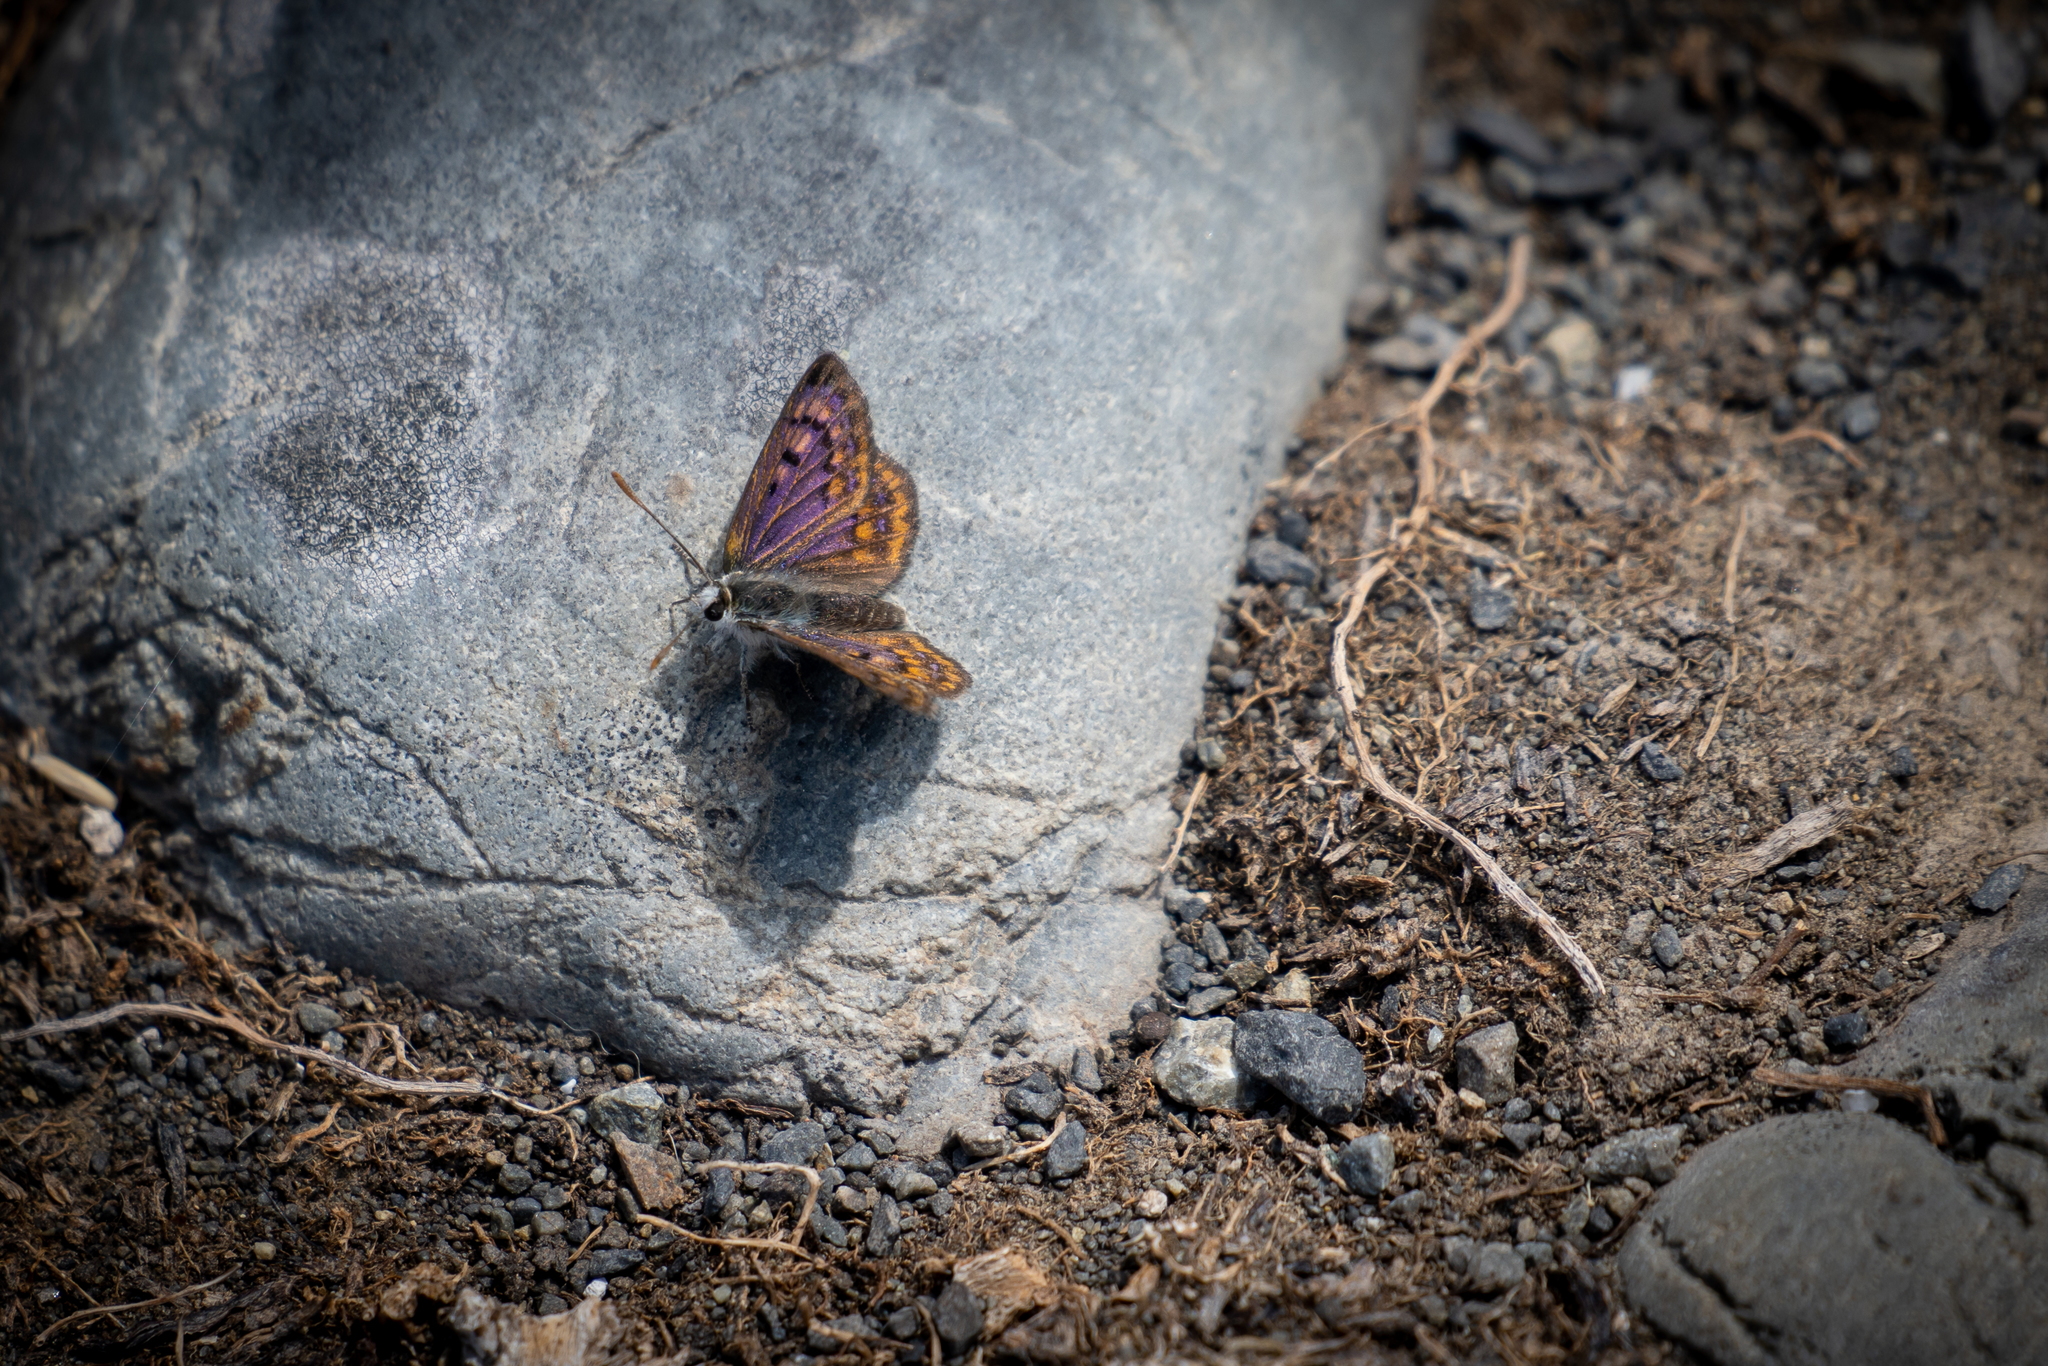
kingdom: Animalia
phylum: Arthropoda
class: Insecta
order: Lepidoptera
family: Lycaenidae
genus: Lycaena
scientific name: Lycaena boldenarum
